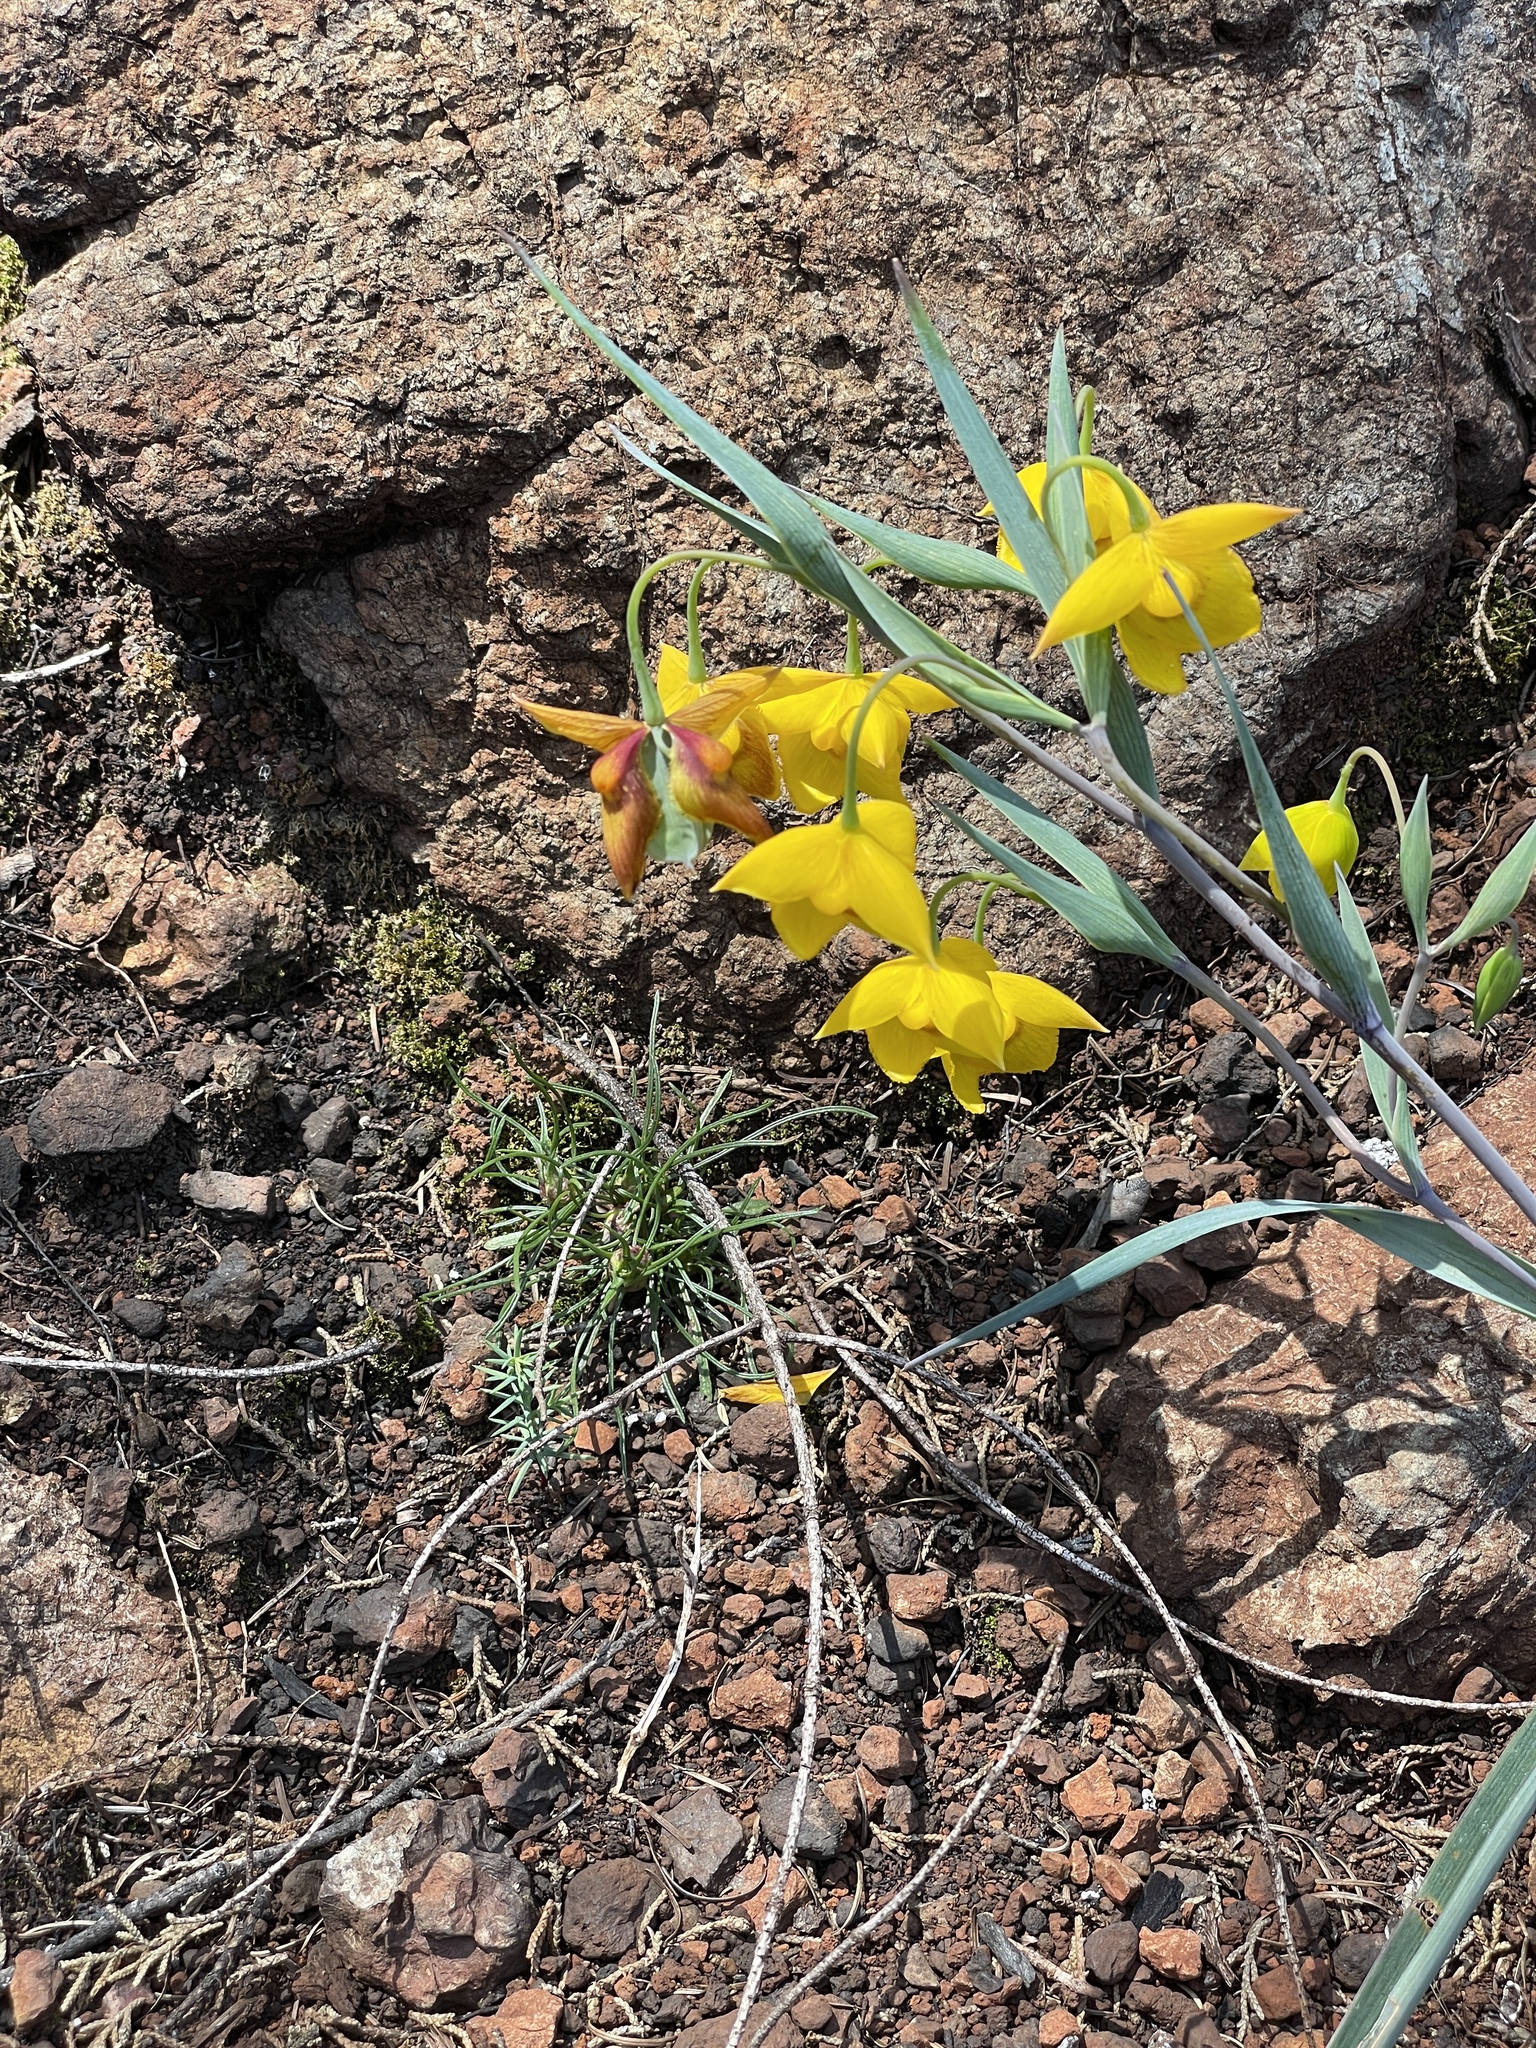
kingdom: Plantae
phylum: Tracheophyta
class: Liliopsida
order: Liliales
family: Liliaceae
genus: Calochortus
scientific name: Calochortus amabilis
